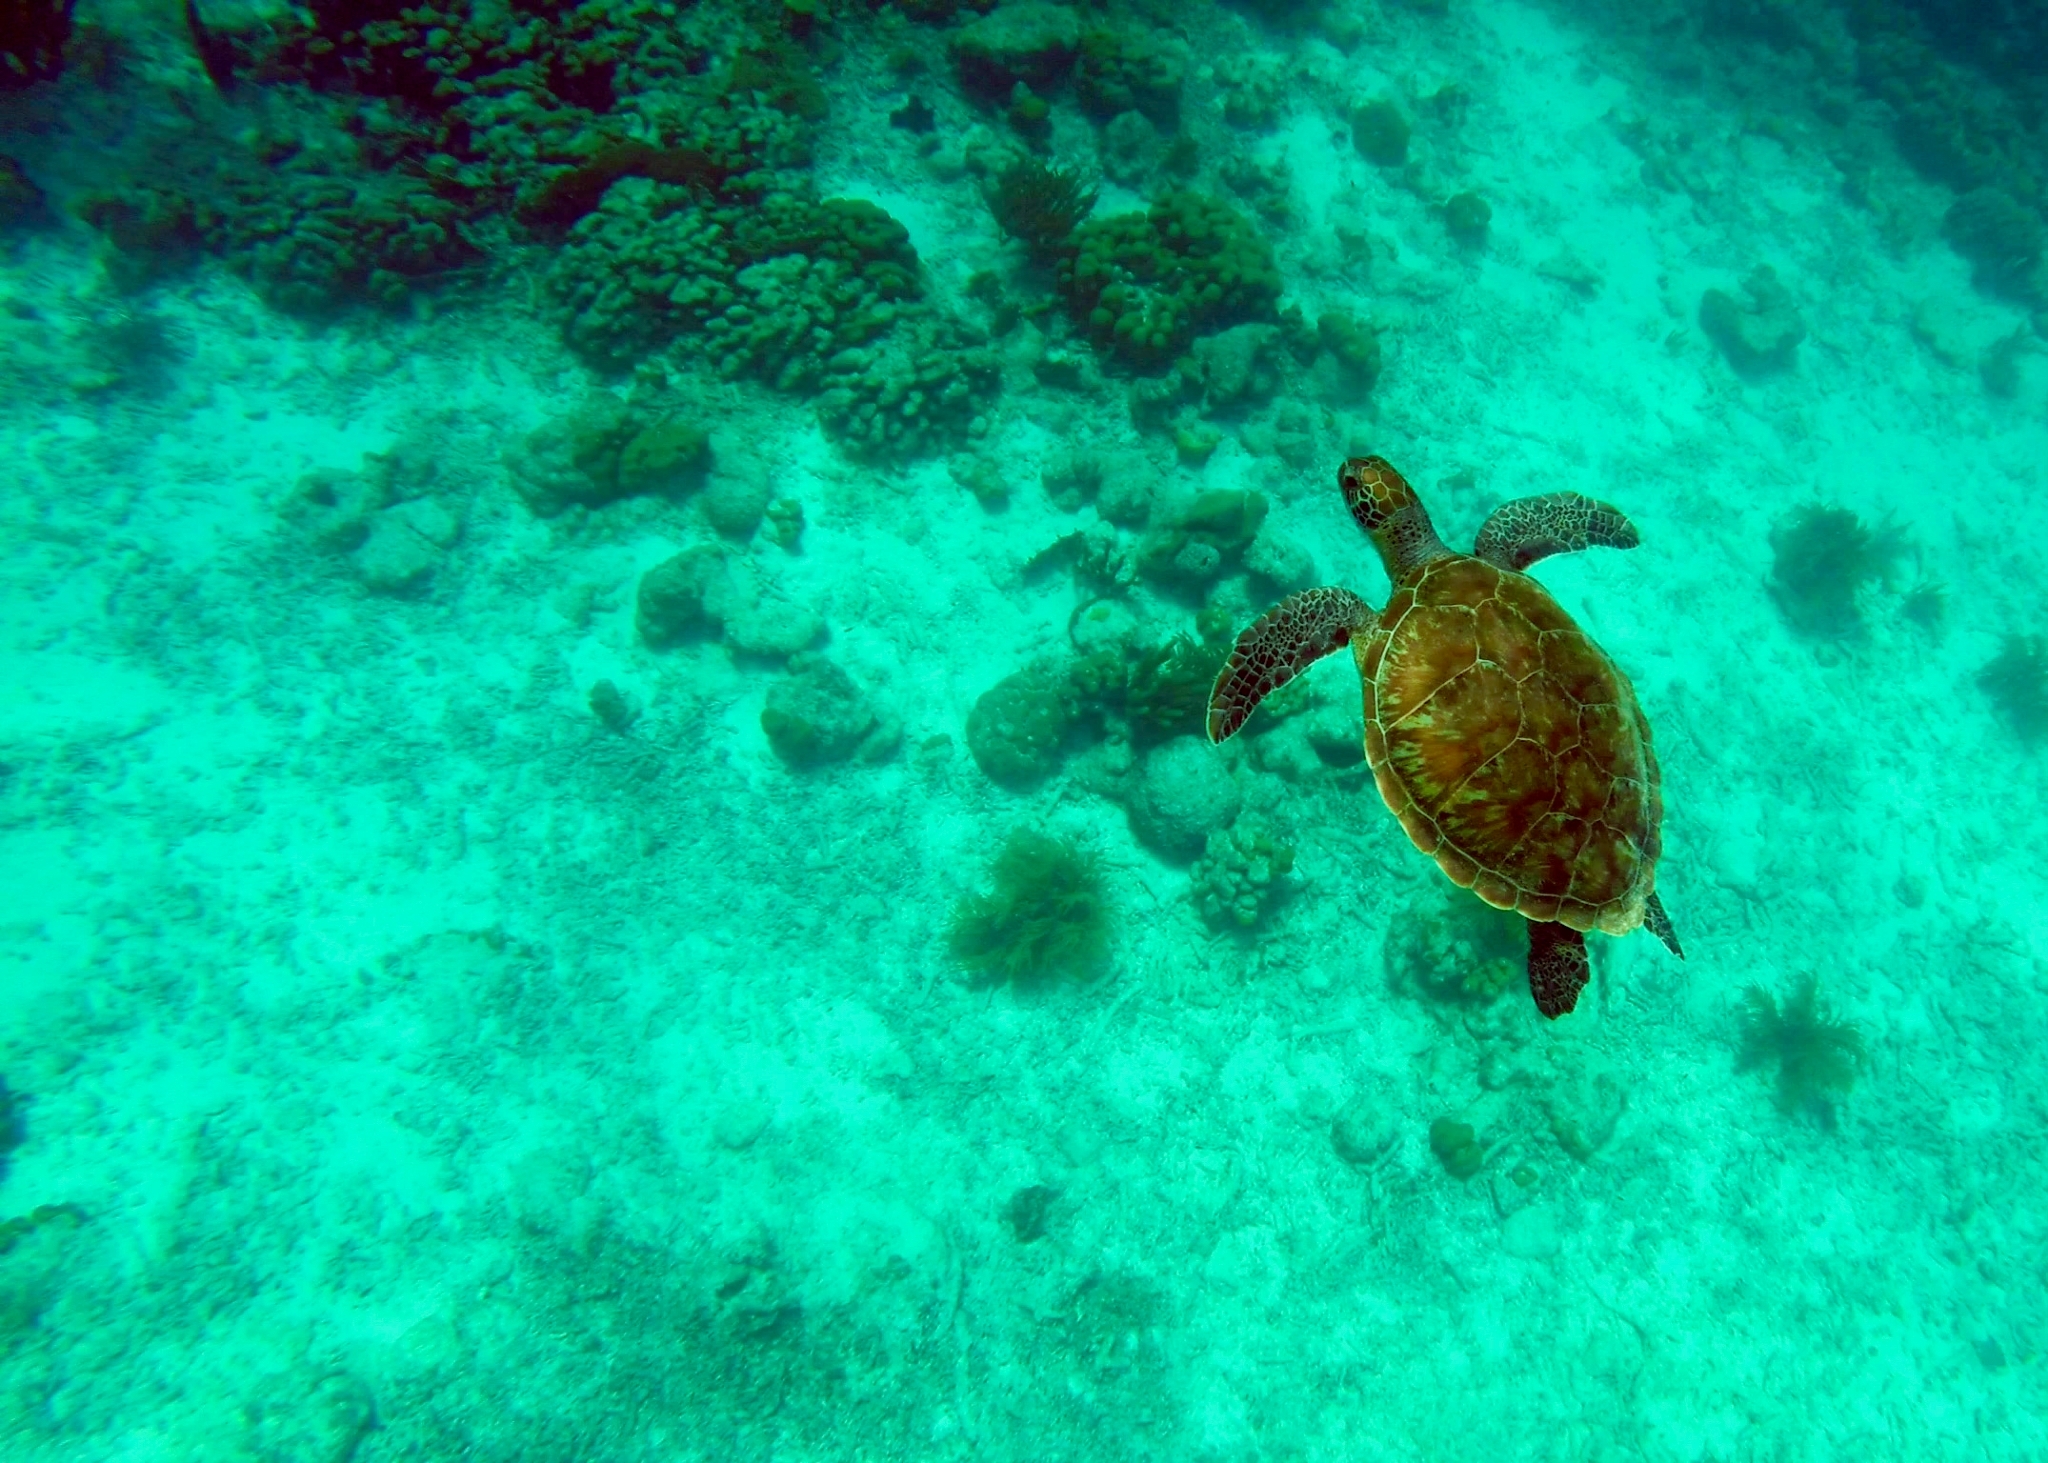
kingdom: Animalia
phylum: Chordata
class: Testudines
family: Cheloniidae
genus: Chelonia
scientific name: Chelonia mydas
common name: Green turtle
